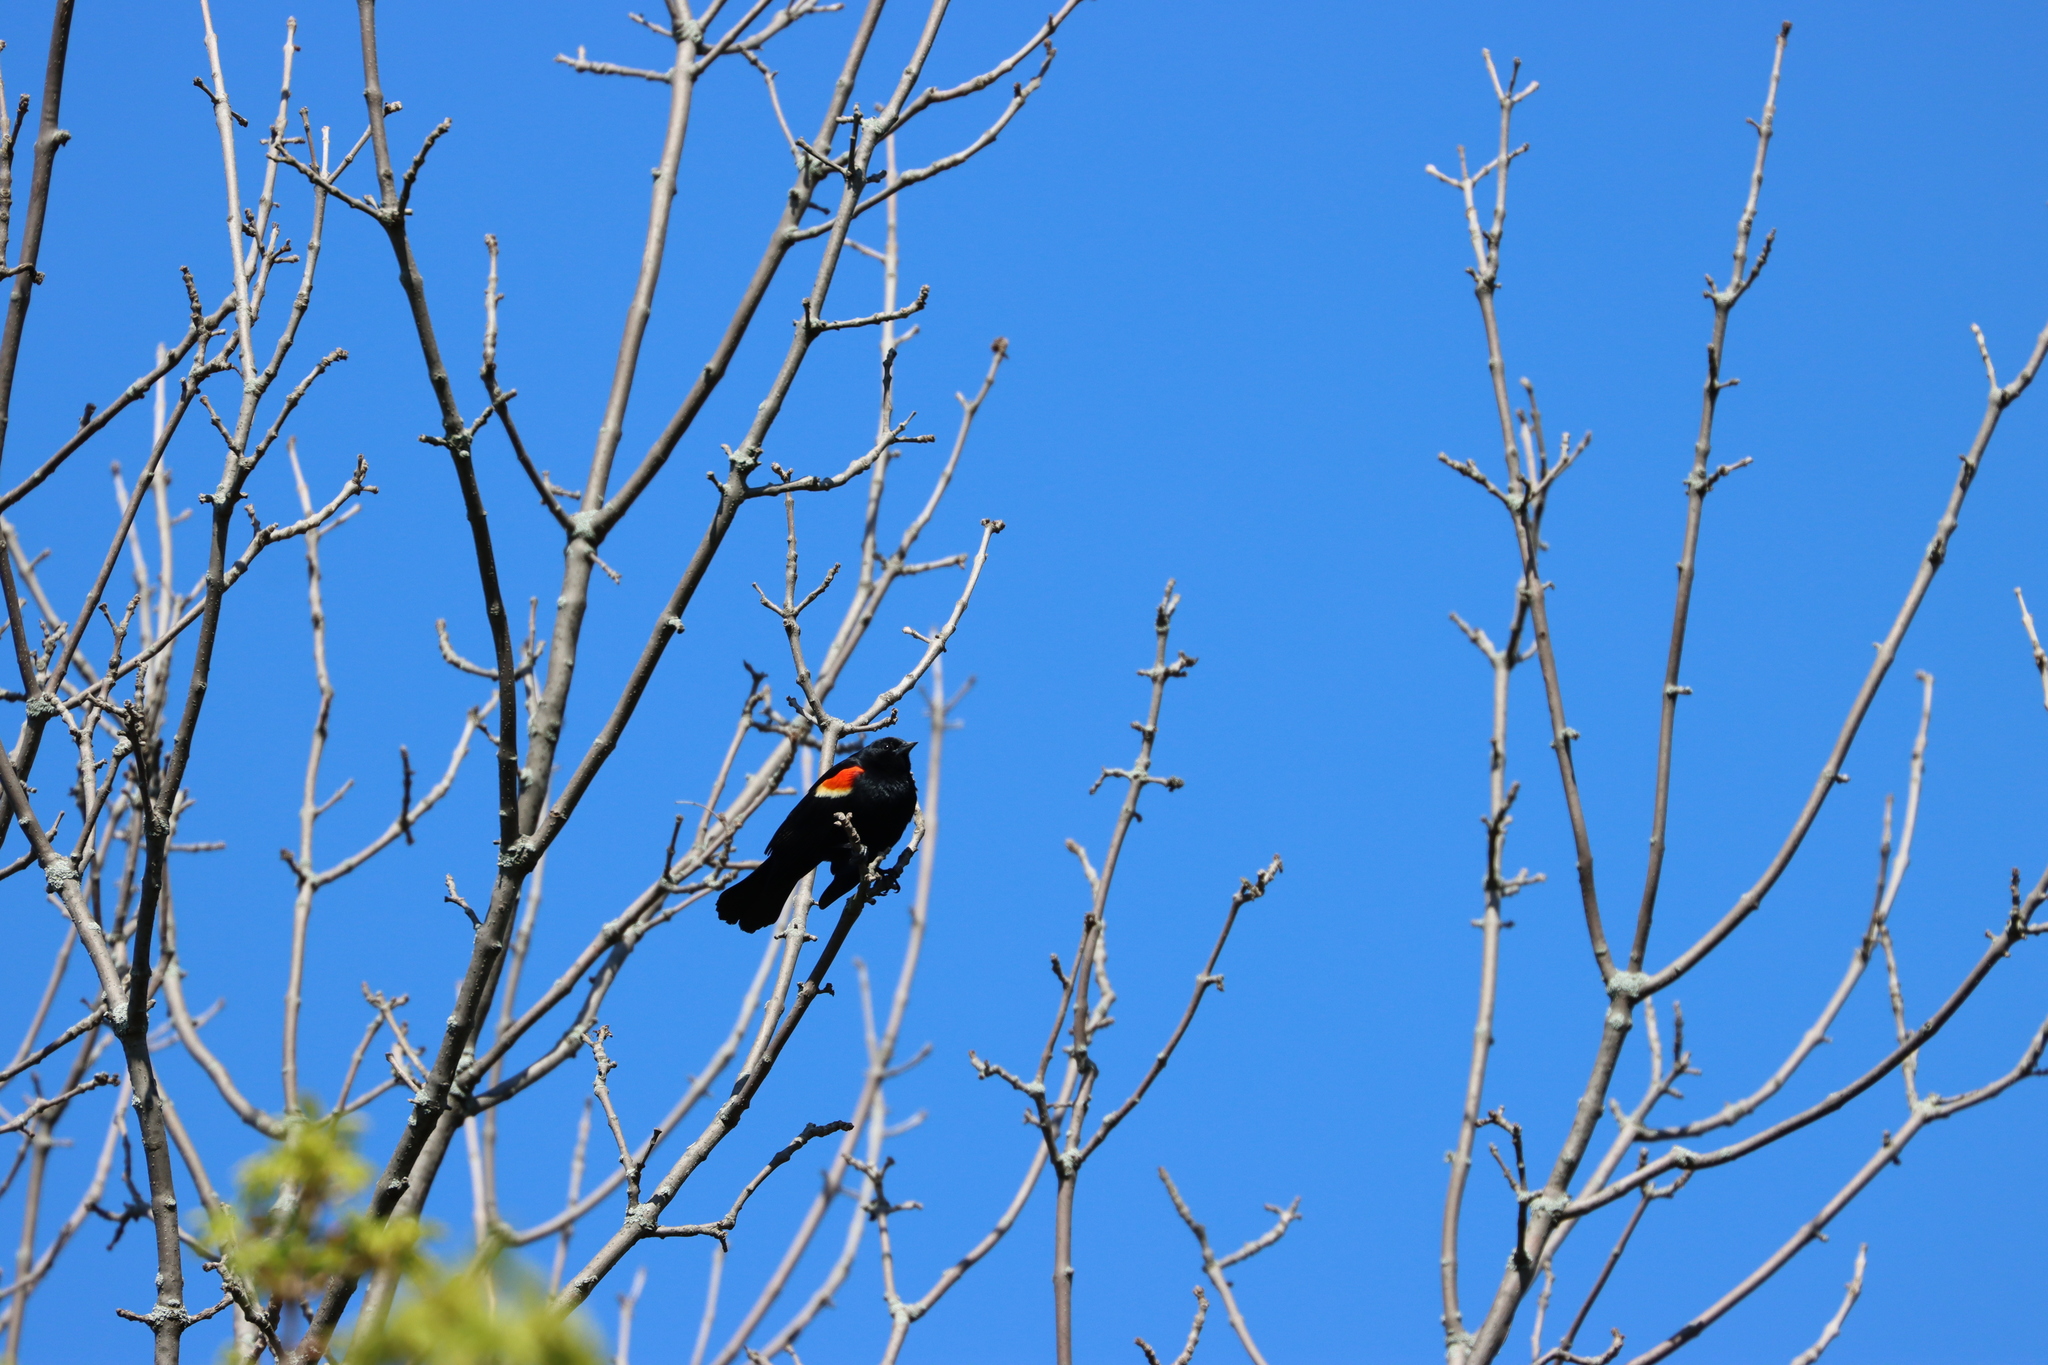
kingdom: Animalia
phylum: Chordata
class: Aves
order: Passeriformes
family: Icteridae
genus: Agelaius
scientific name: Agelaius phoeniceus
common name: Red-winged blackbird
